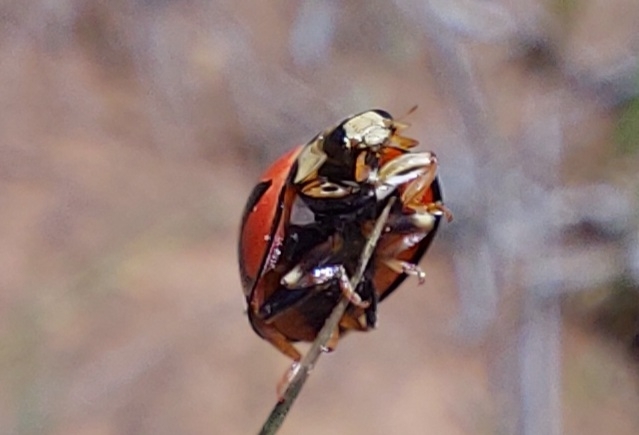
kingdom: Animalia
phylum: Arthropoda
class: Insecta
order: Coleoptera
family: Coccinellidae
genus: Cheilomenes
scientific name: Cheilomenes lunata
